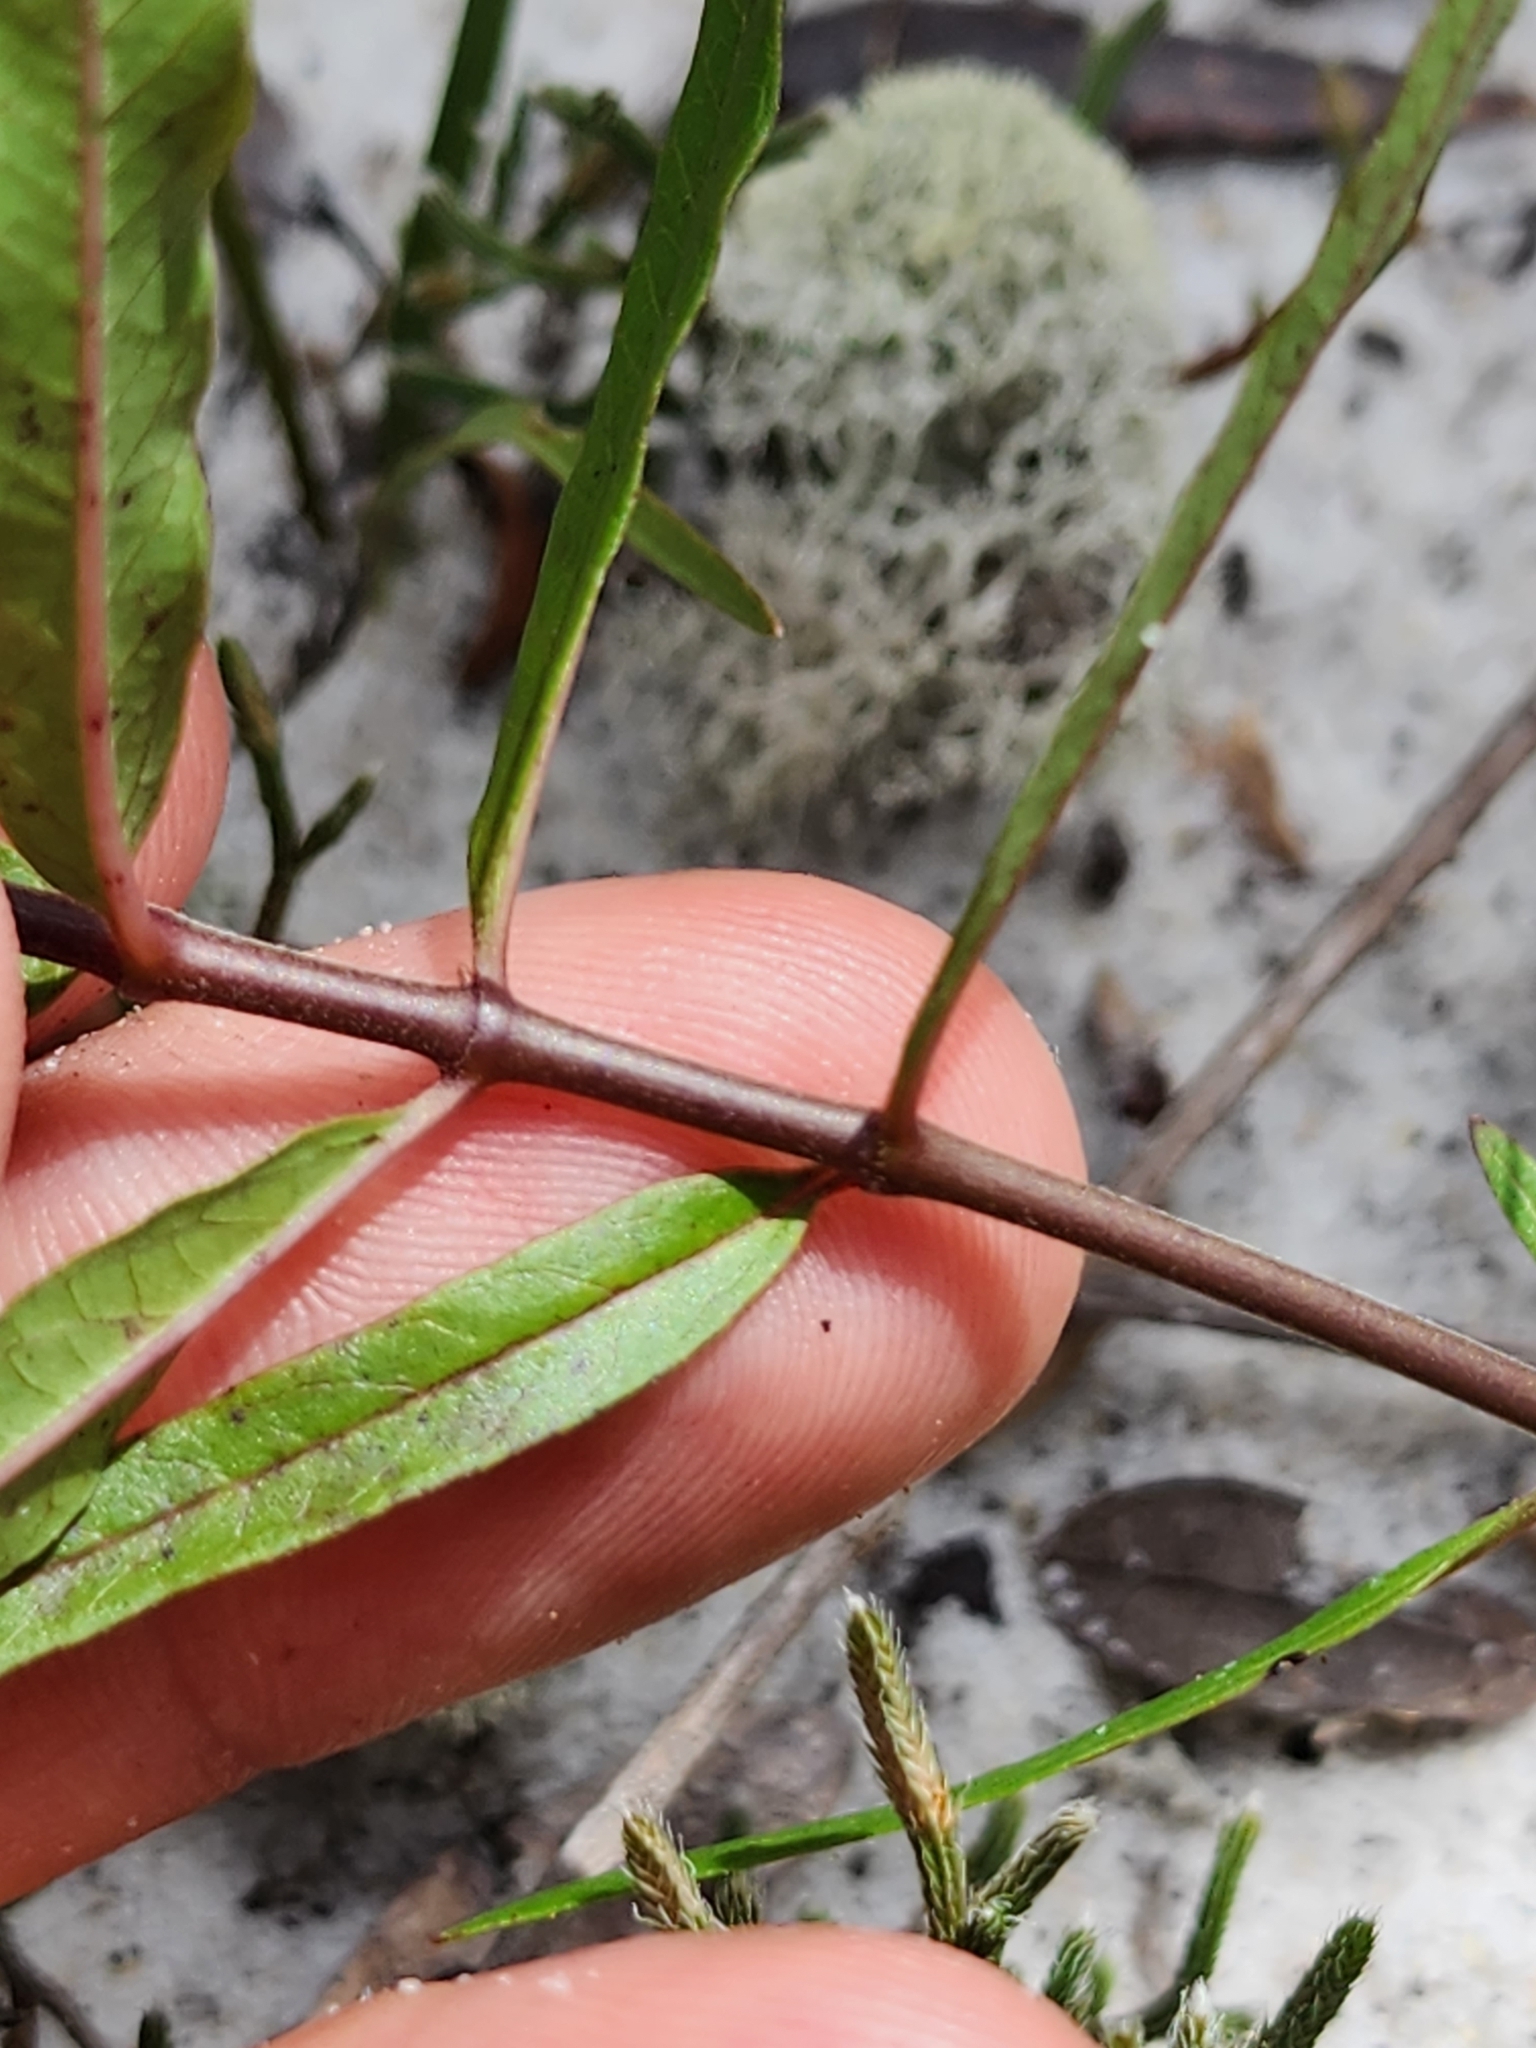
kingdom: Plantae
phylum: Tracheophyta
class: Magnoliopsida
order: Gentianales
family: Apocynaceae
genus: Asclepias
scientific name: Asclepias curtissii
